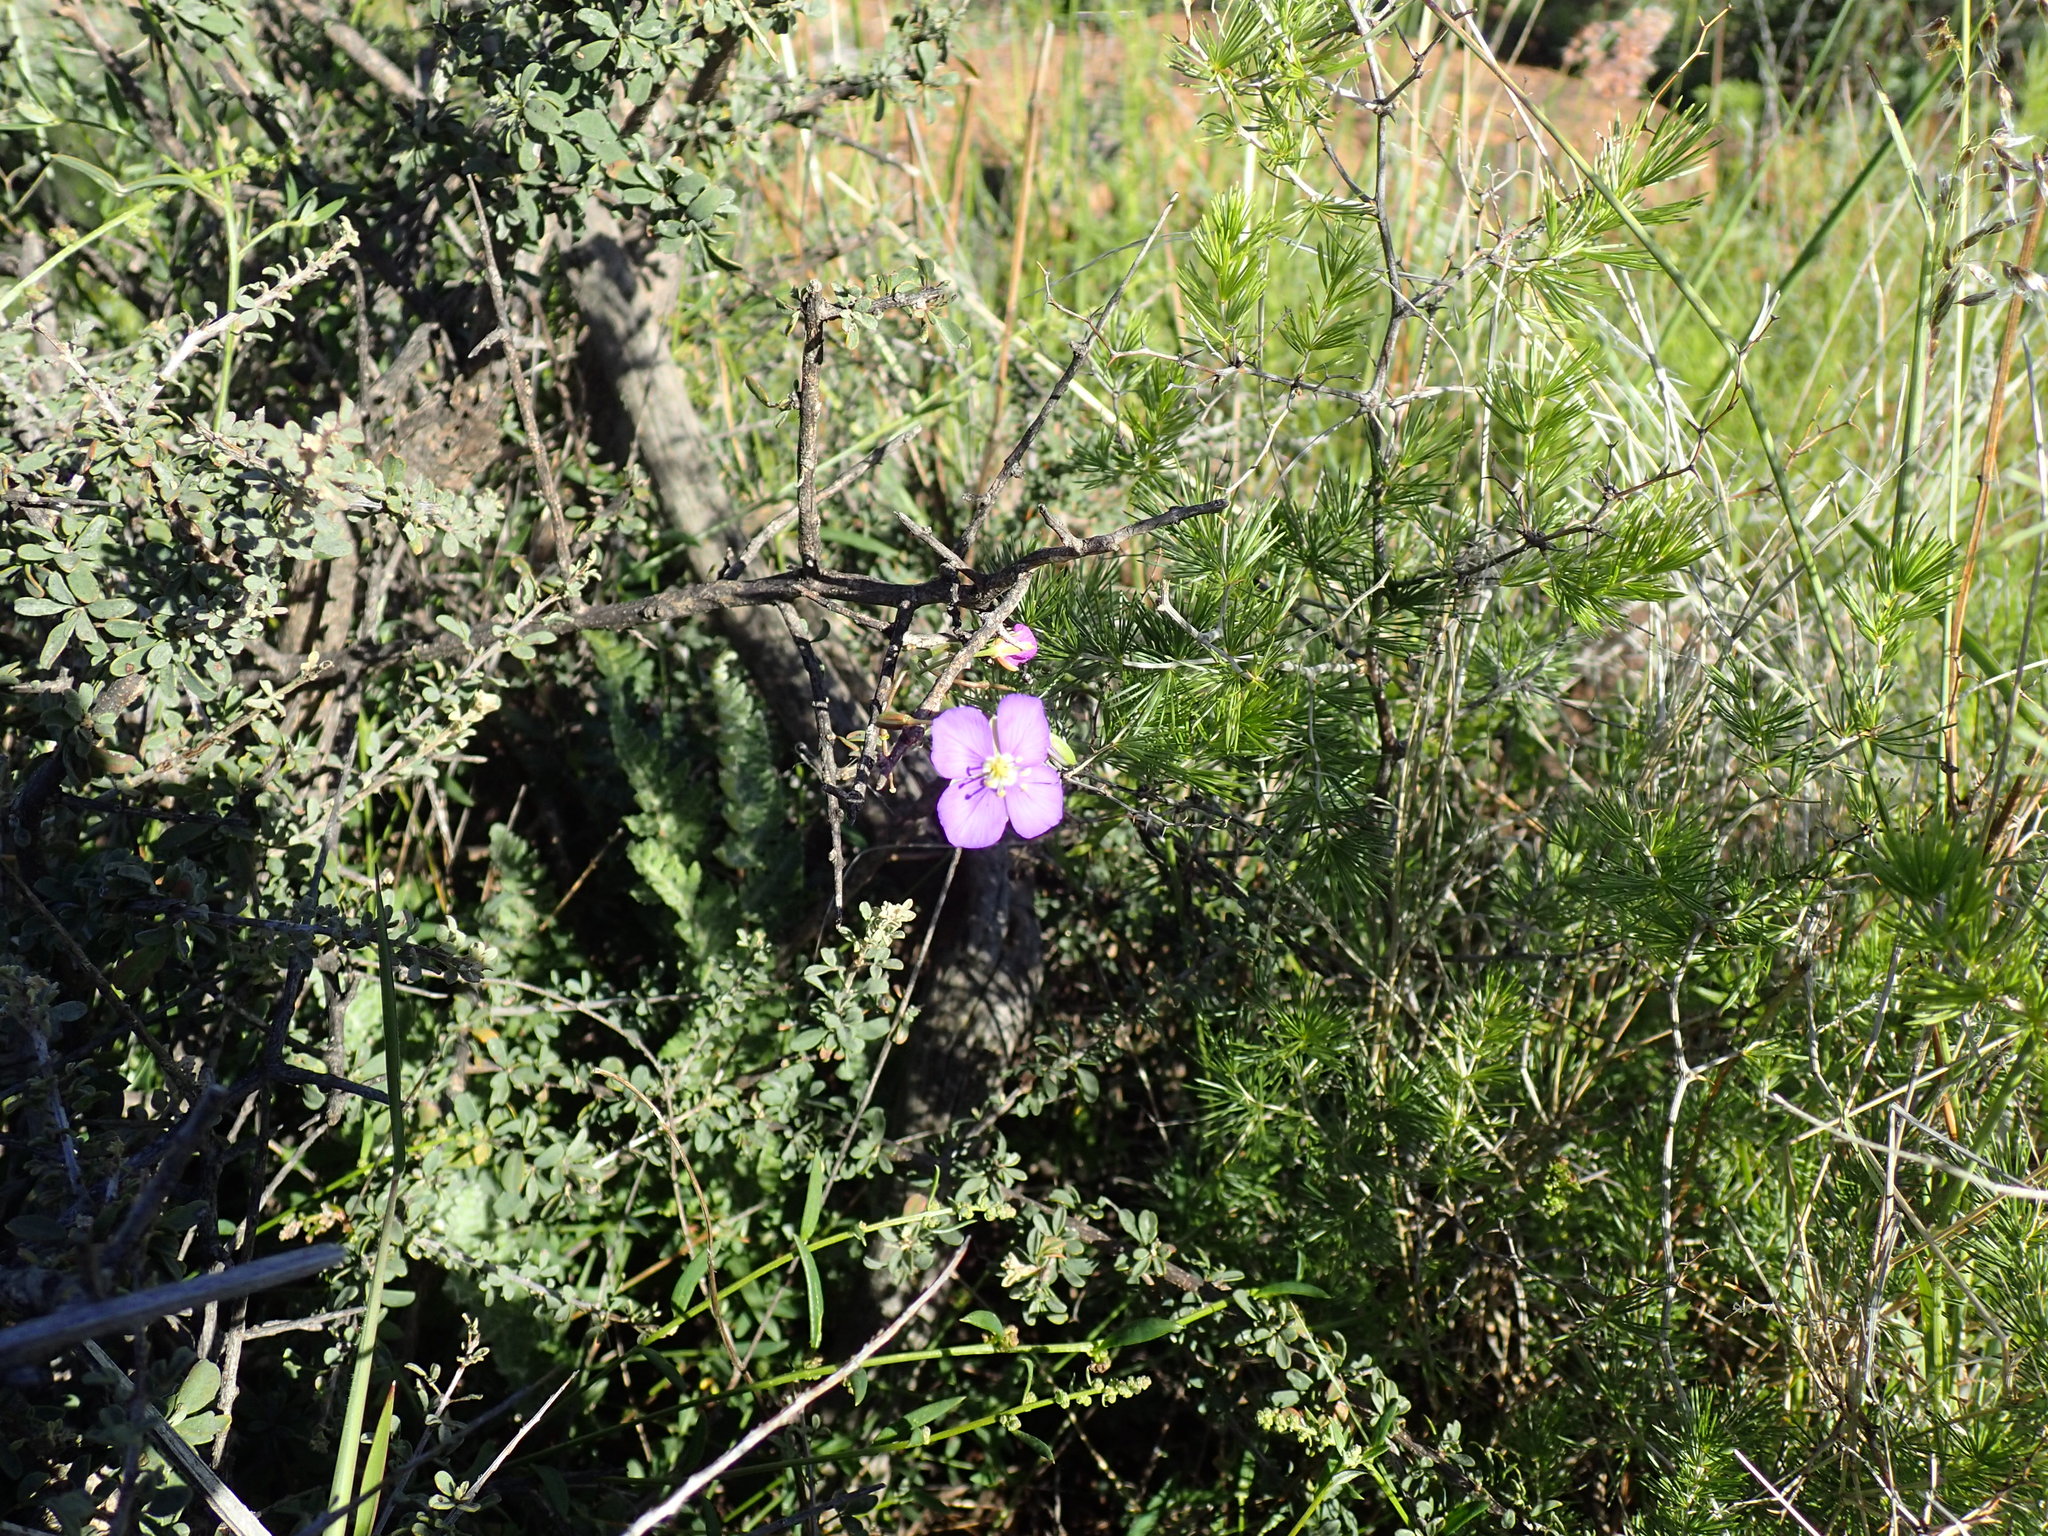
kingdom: Plantae
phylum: Tracheophyta
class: Magnoliopsida
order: Brassicales
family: Brassicaceae
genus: Heliophila
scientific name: Heliophila suavissima
